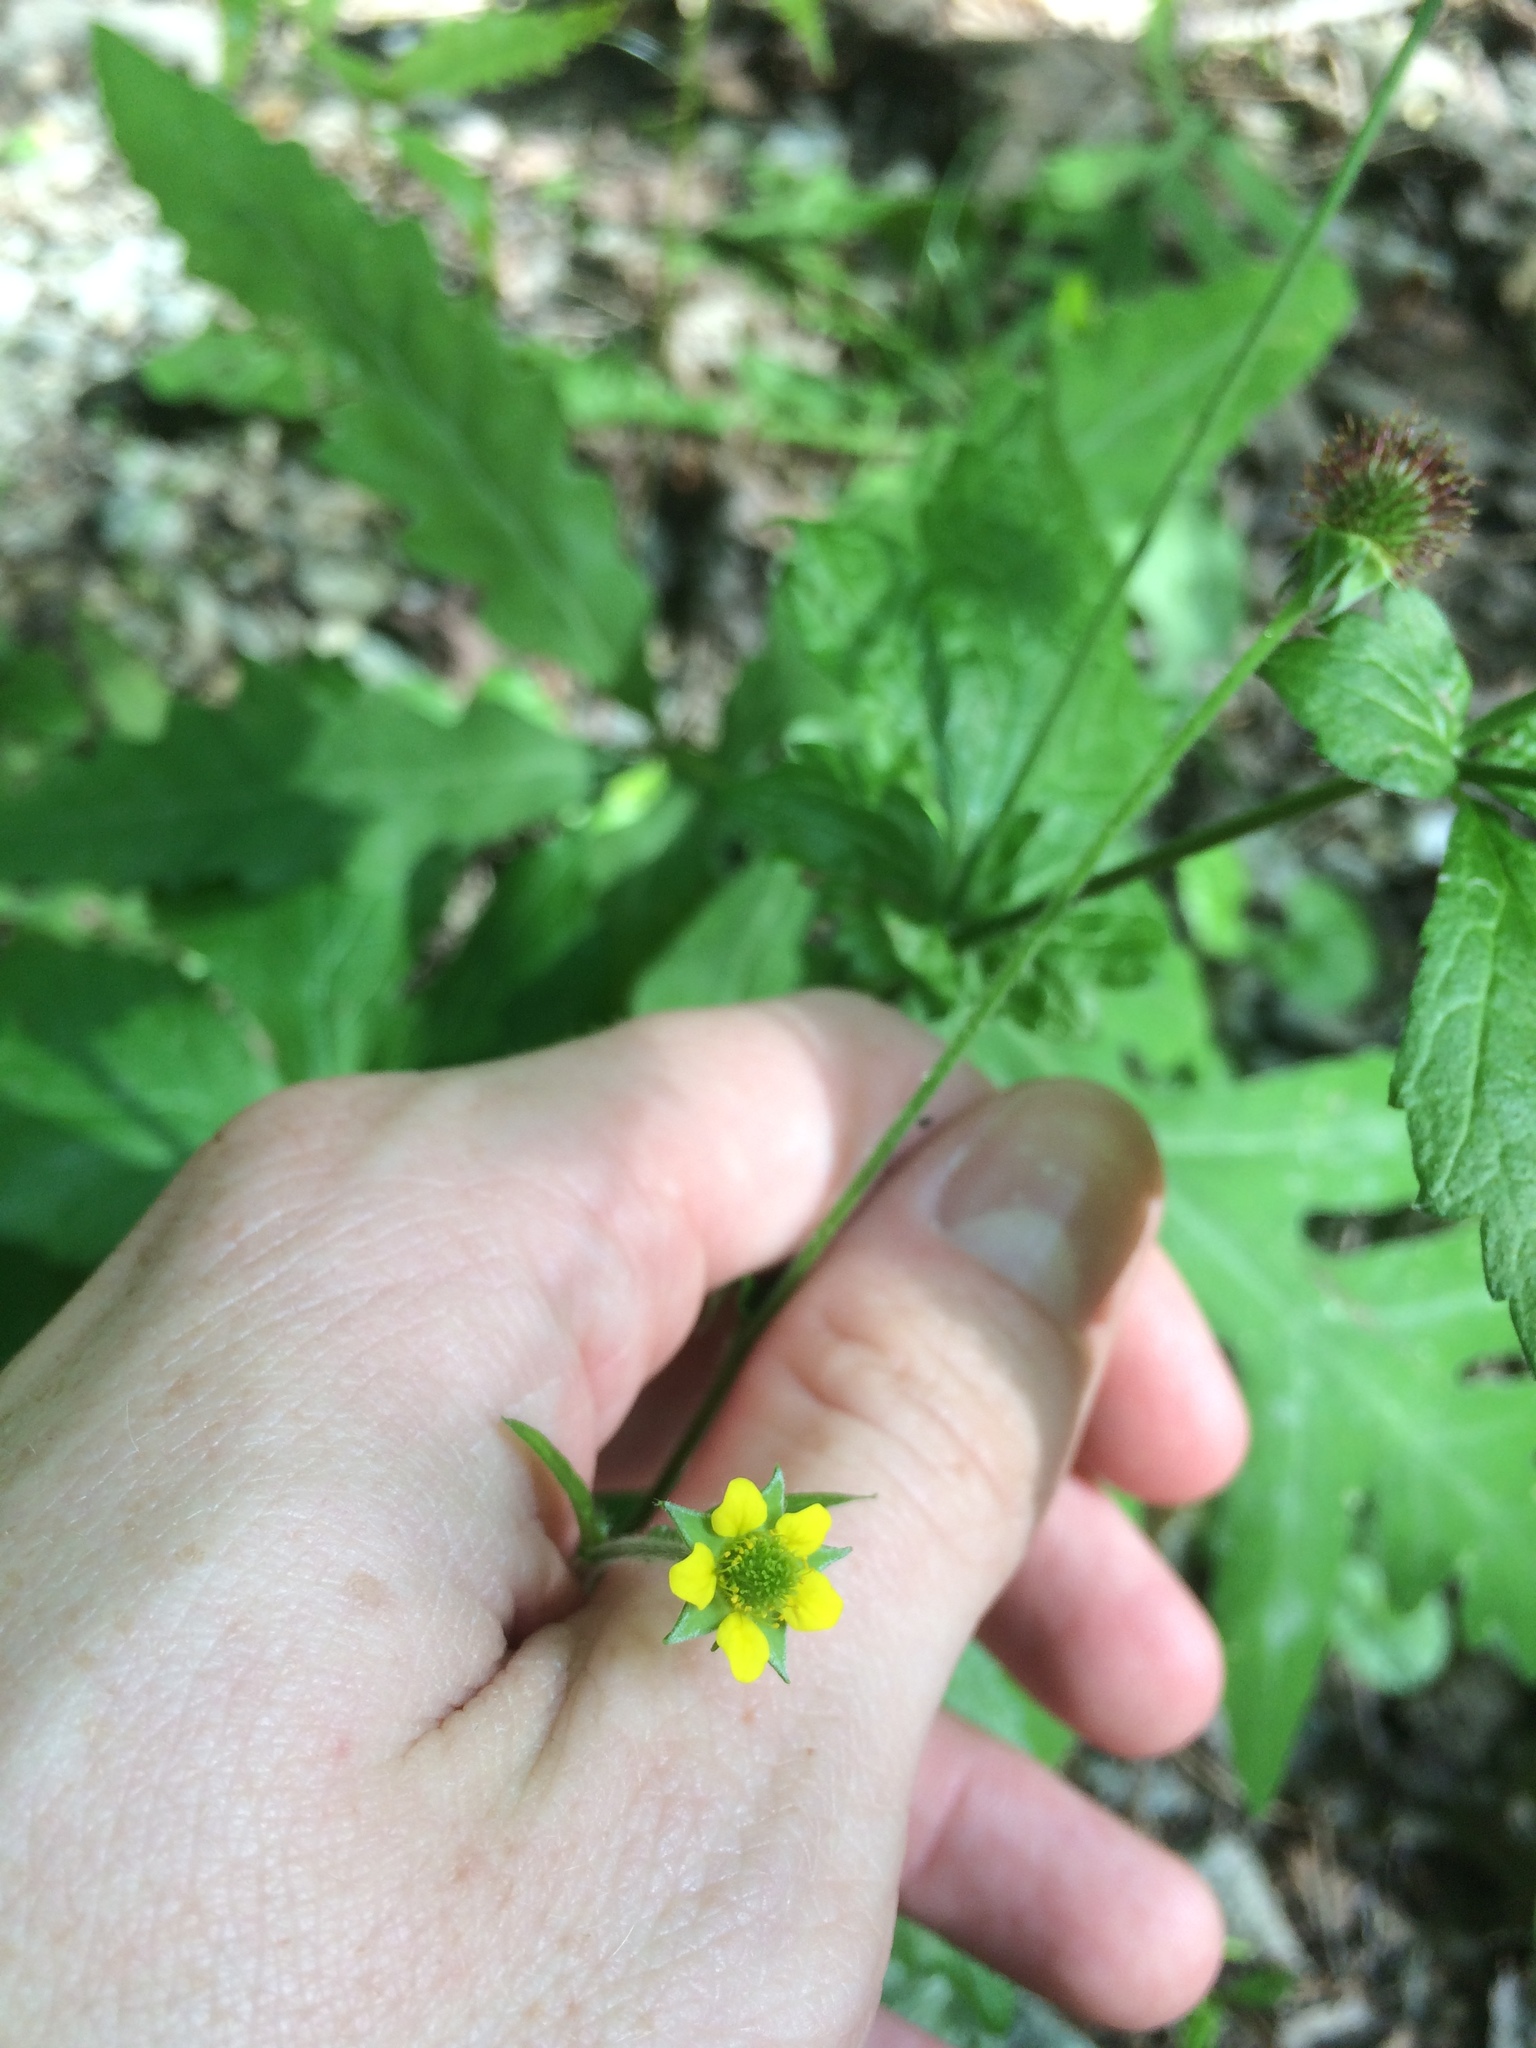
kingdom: Plantae
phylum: Tracheophyta
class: Magnoliopsida
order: Rosales
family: Rosaceae
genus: Geum
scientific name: Geum urbanum
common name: Wood avens
